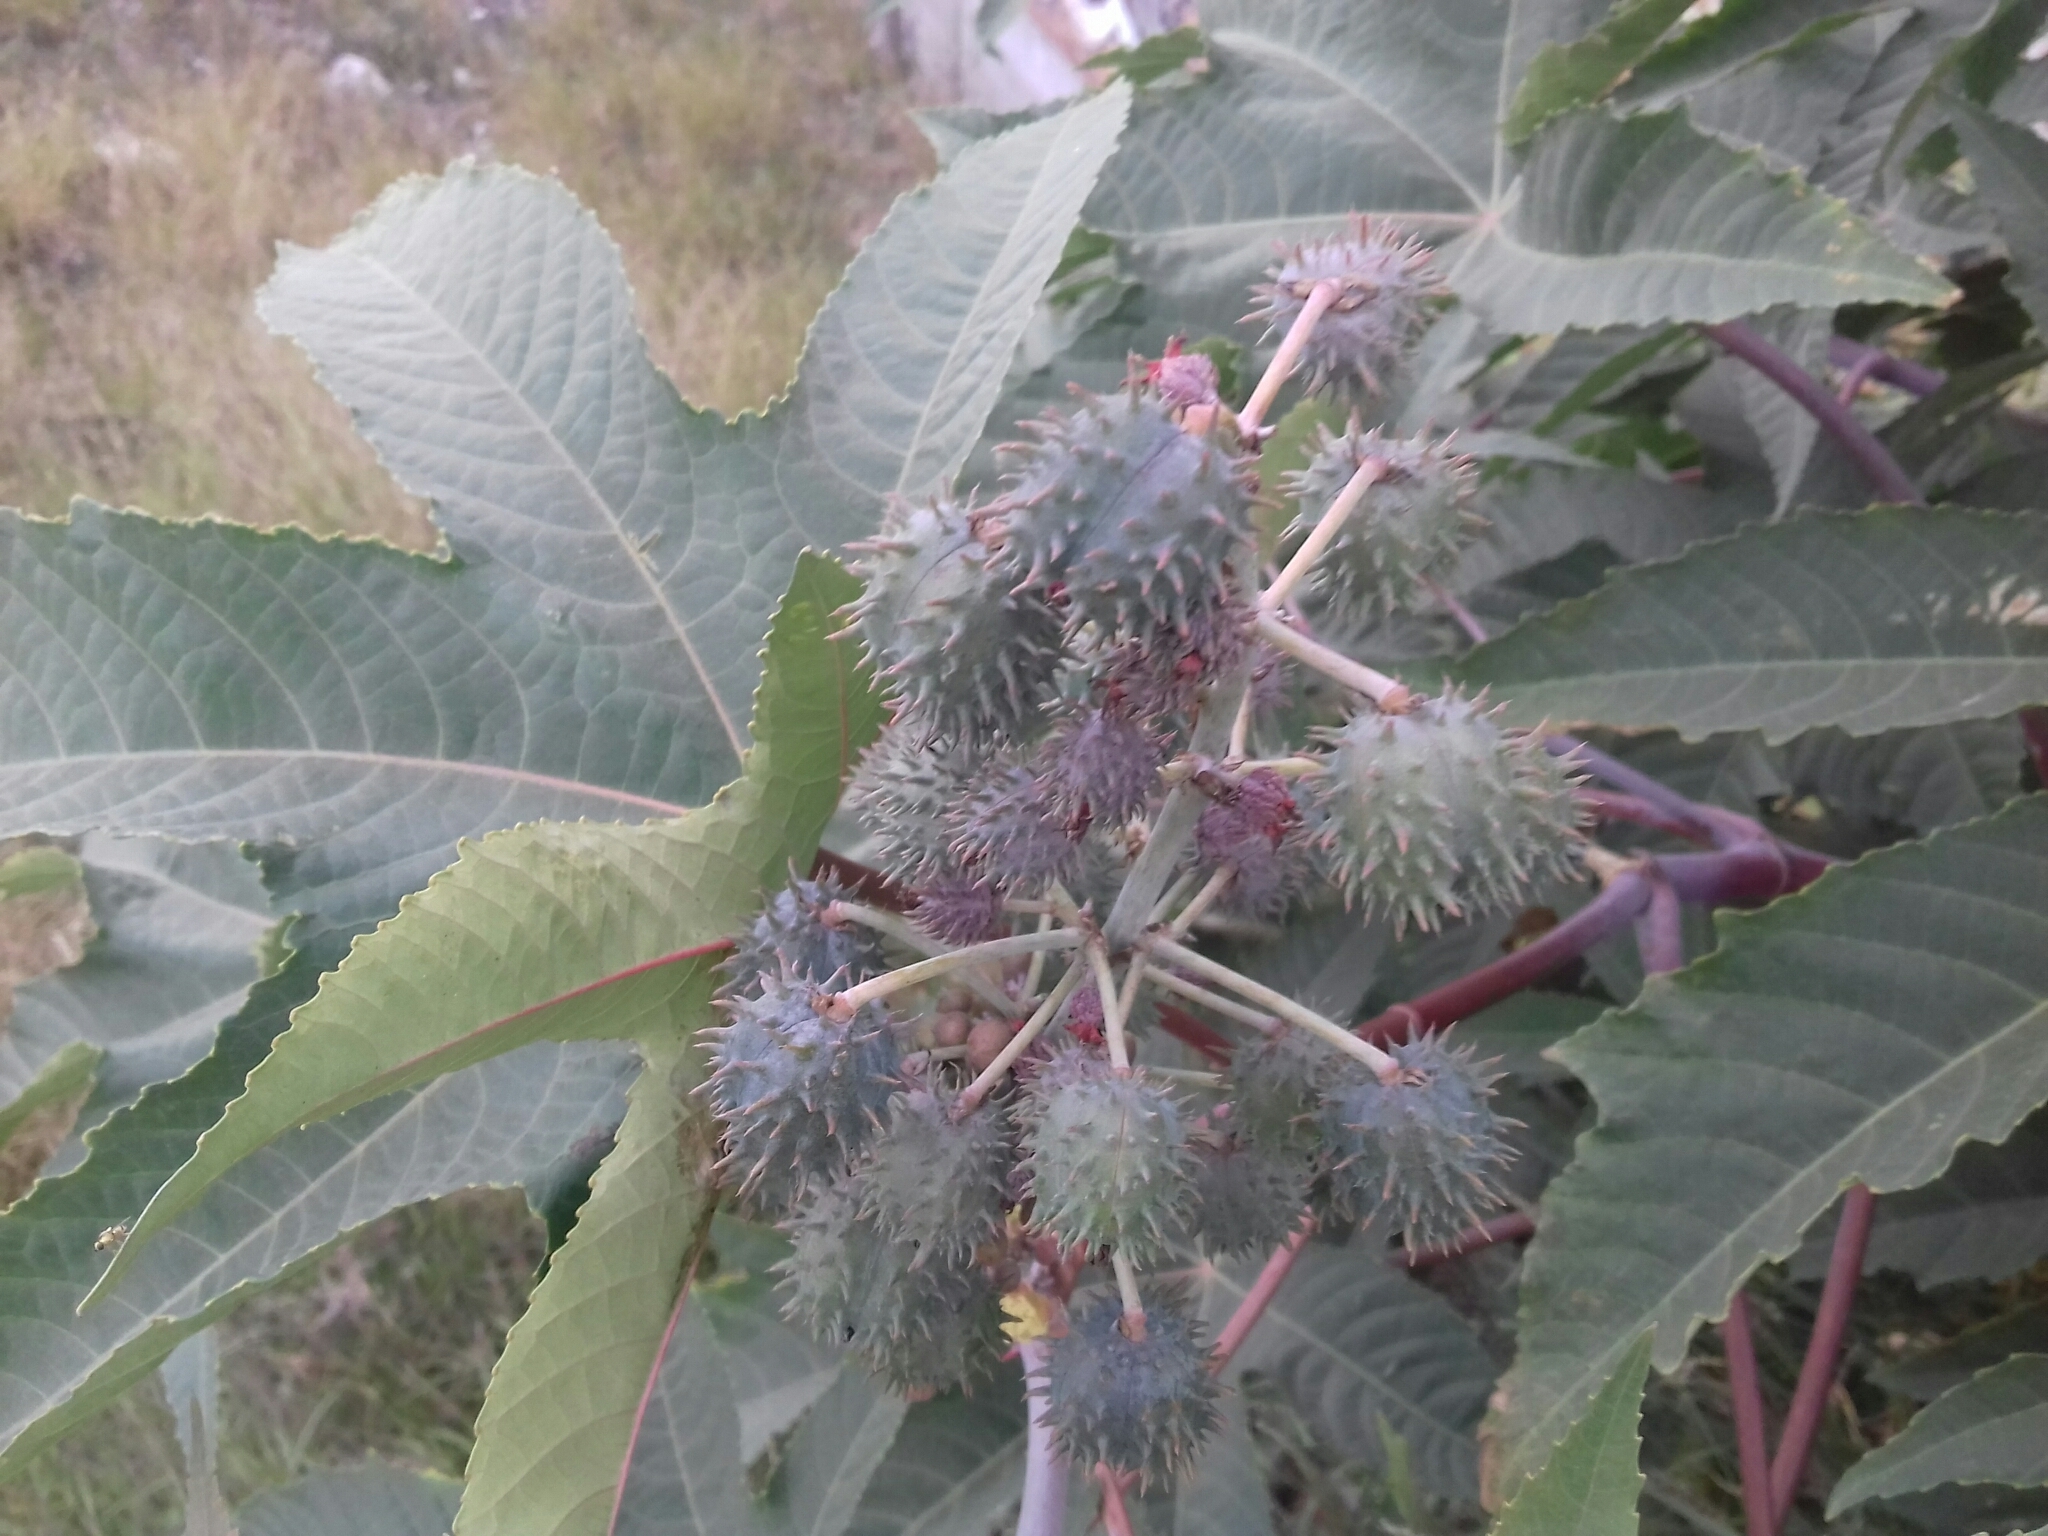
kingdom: Plantae
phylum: Tracheophyta
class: Magnoliopsida
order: Malpighiales
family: Euphorbiaceae
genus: Ricinus
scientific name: Ricinus communis
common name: Castor-oil-plant
